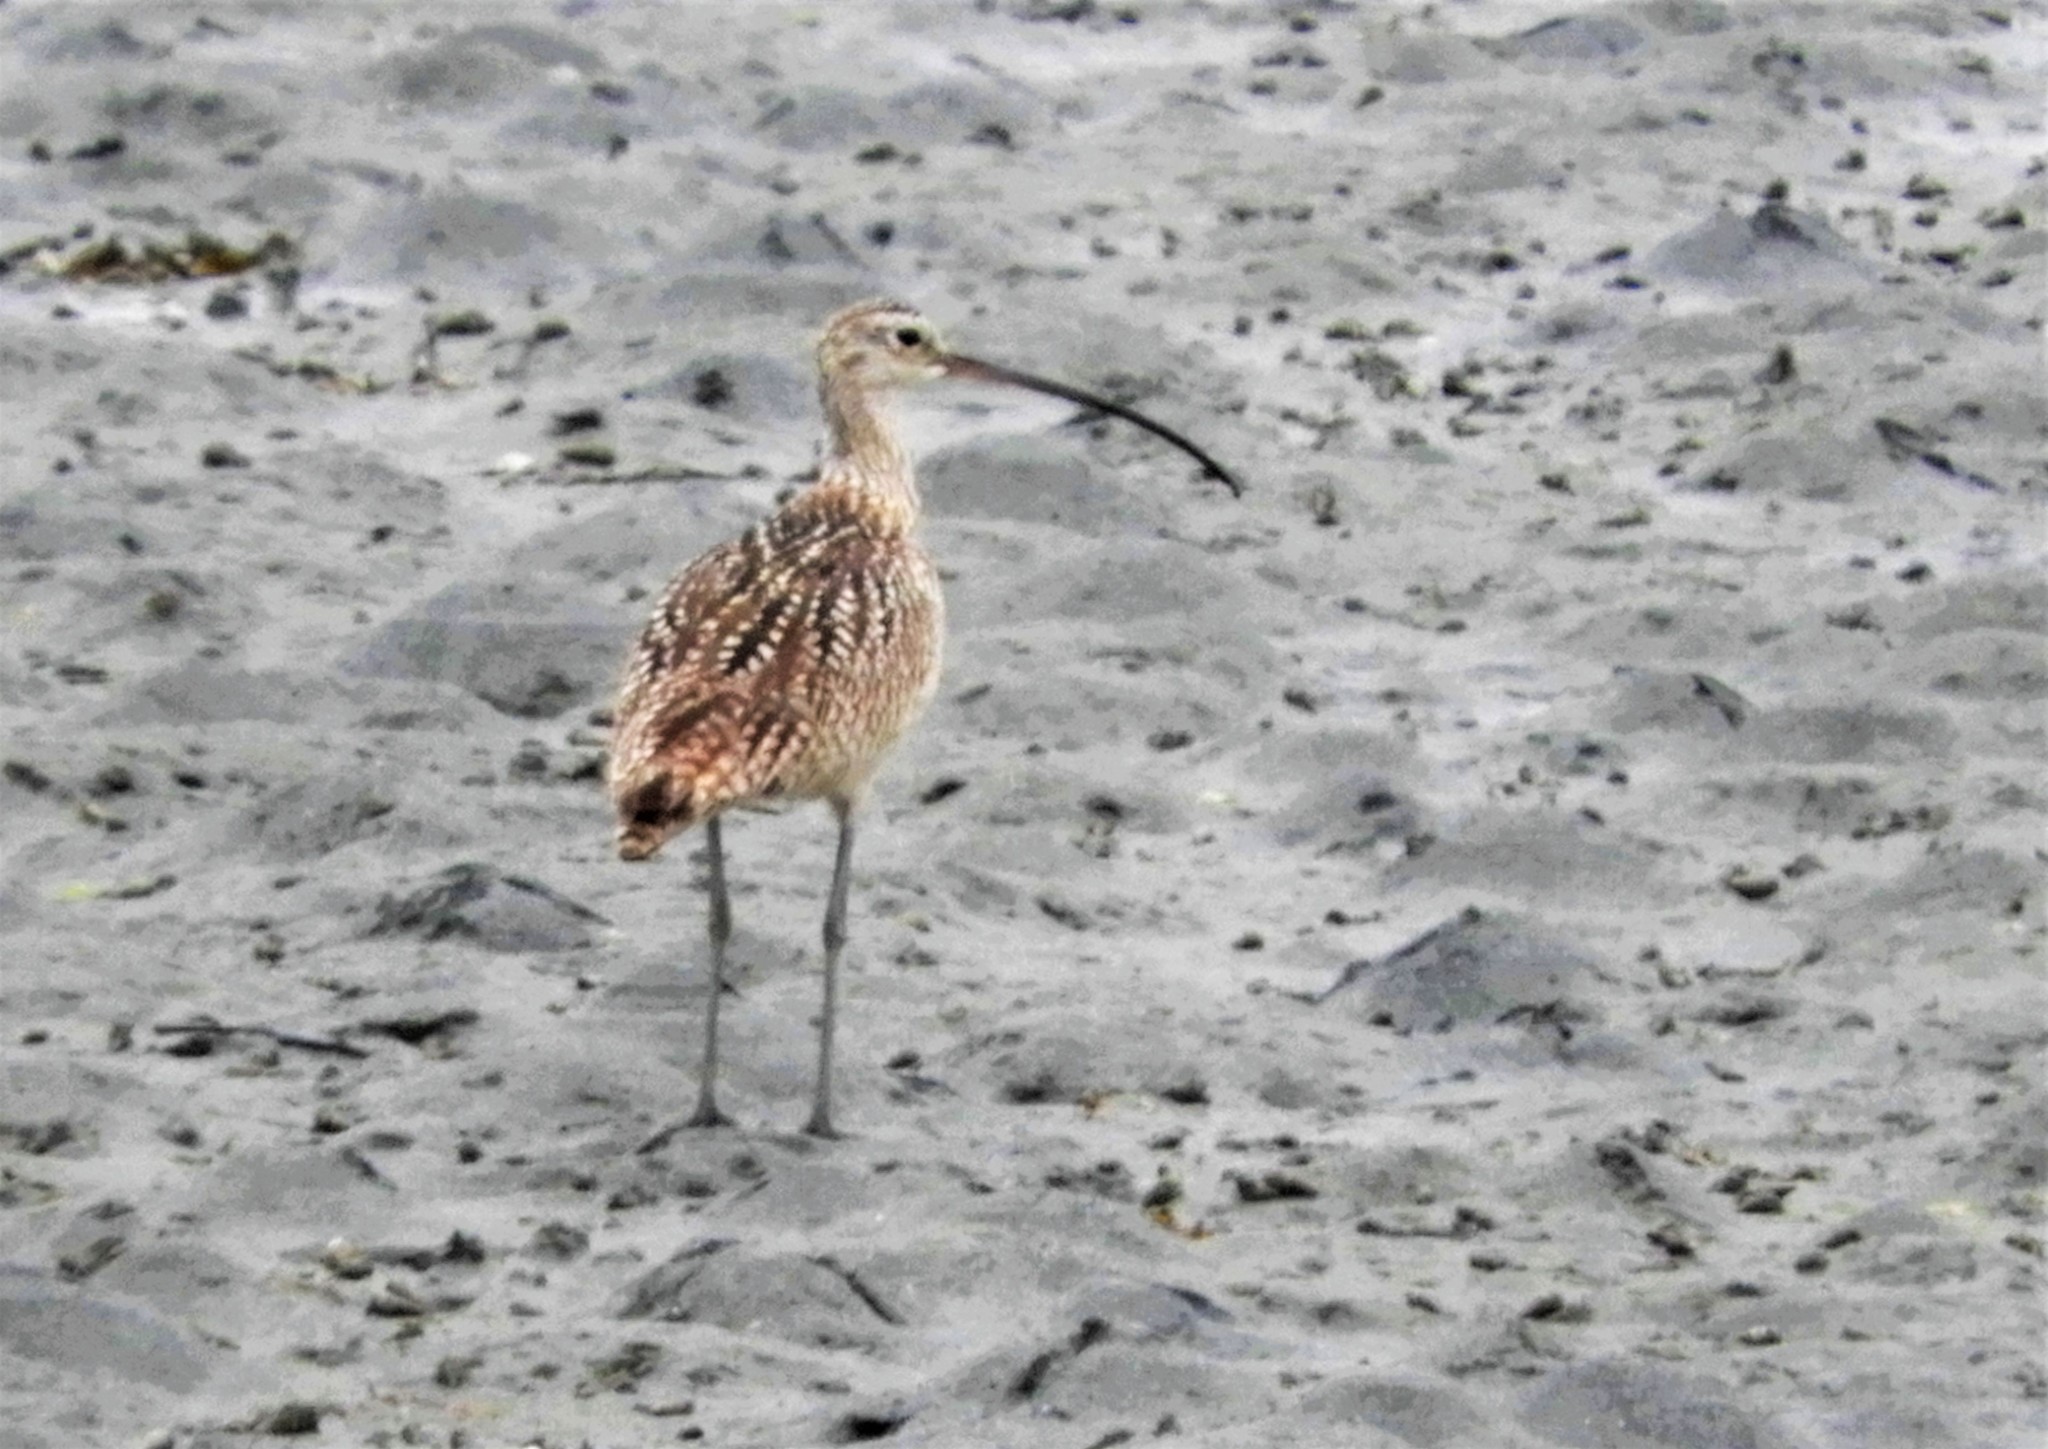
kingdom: Animalia
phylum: Chordata
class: Aves
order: Charadriiformes
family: Scolopacidae
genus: Numenius
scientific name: Numenius americanus
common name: Long-billed curlew
